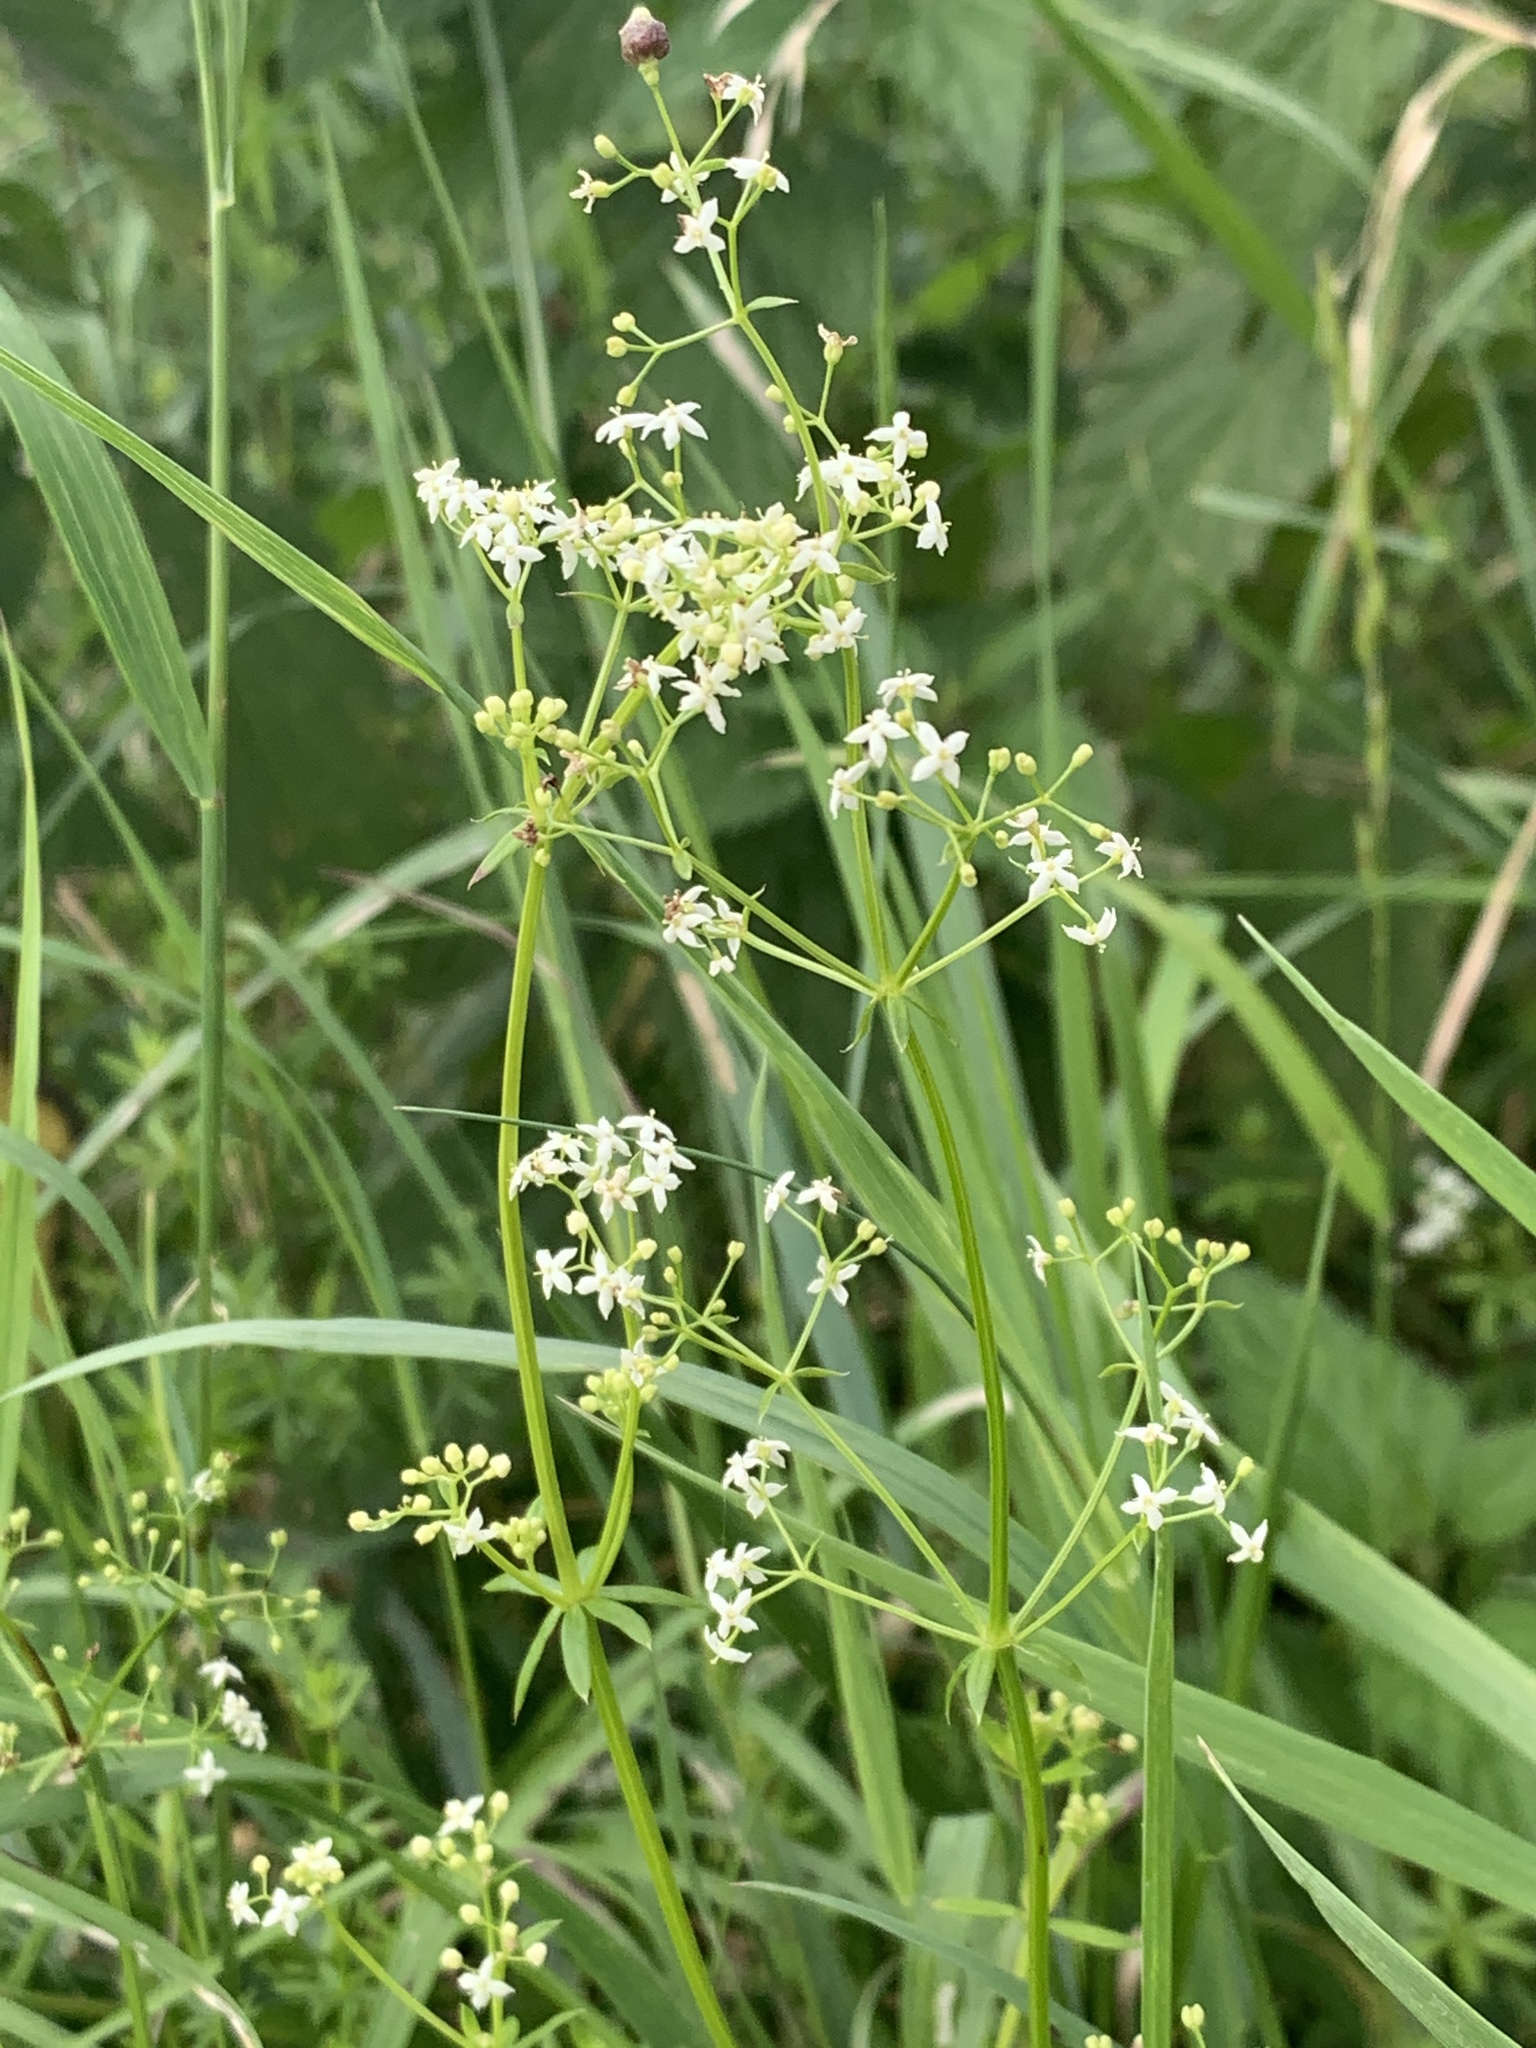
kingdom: Plantae
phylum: Tracheophyta
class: Magnoliopsida
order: Gentianales
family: Rubiaceae
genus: Galium
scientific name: Galium album
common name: White bedstraw
